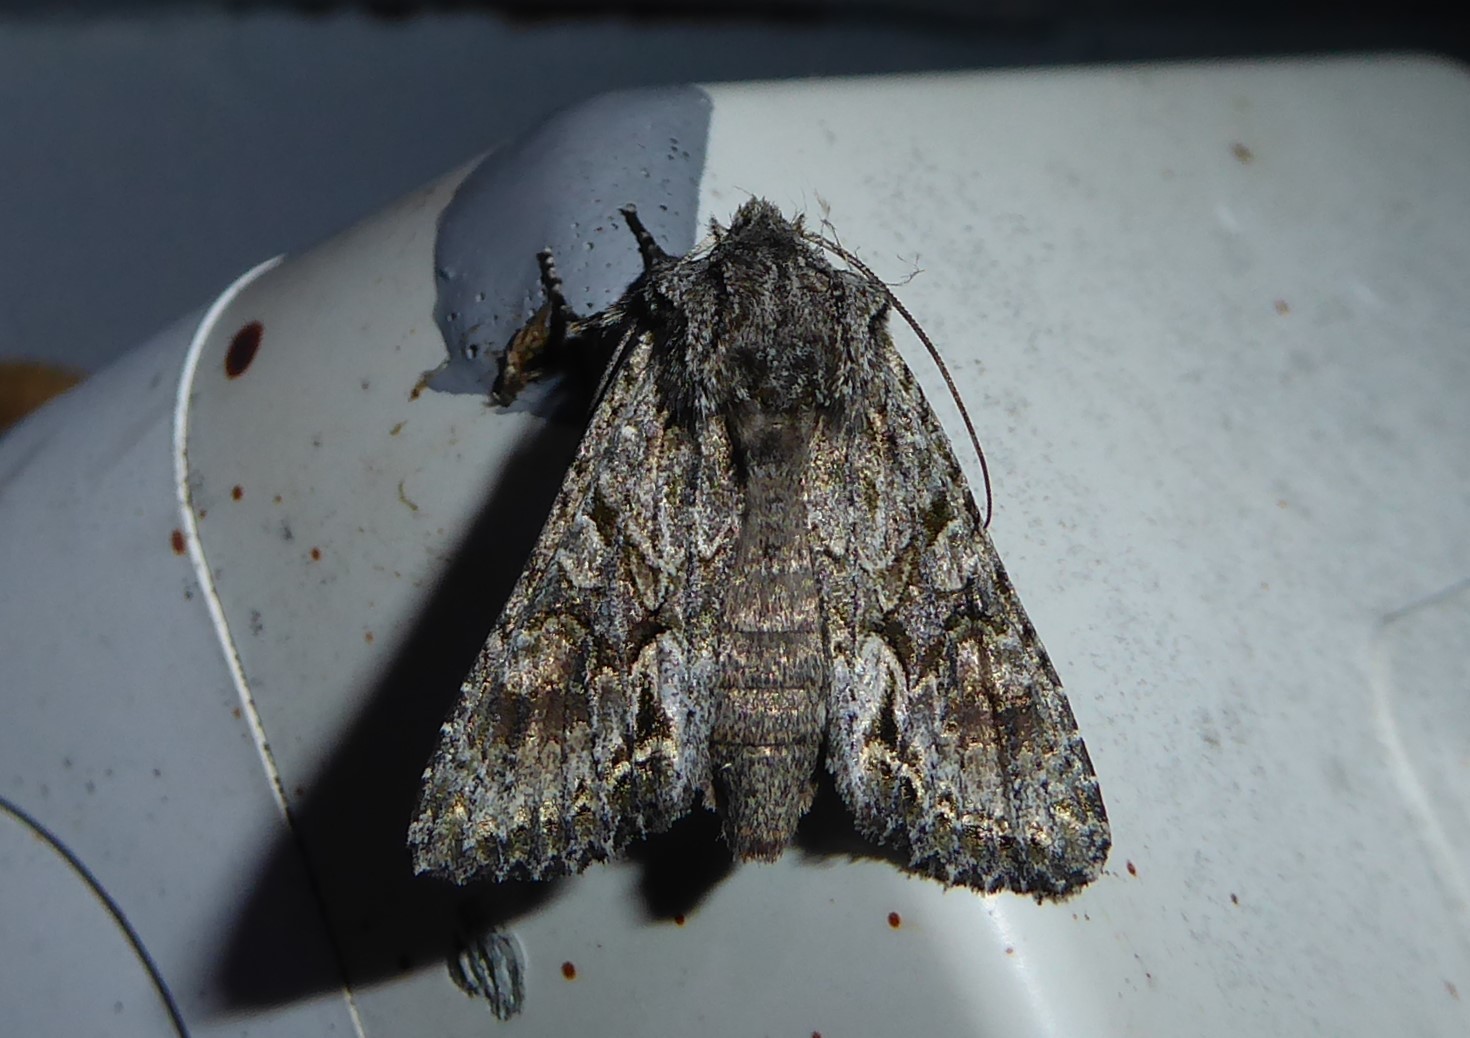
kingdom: Animalia
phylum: Arthropoda
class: Insecta
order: Lepidoptera
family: Noctuidae
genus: Ichneutica
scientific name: Ichneutica mutans
